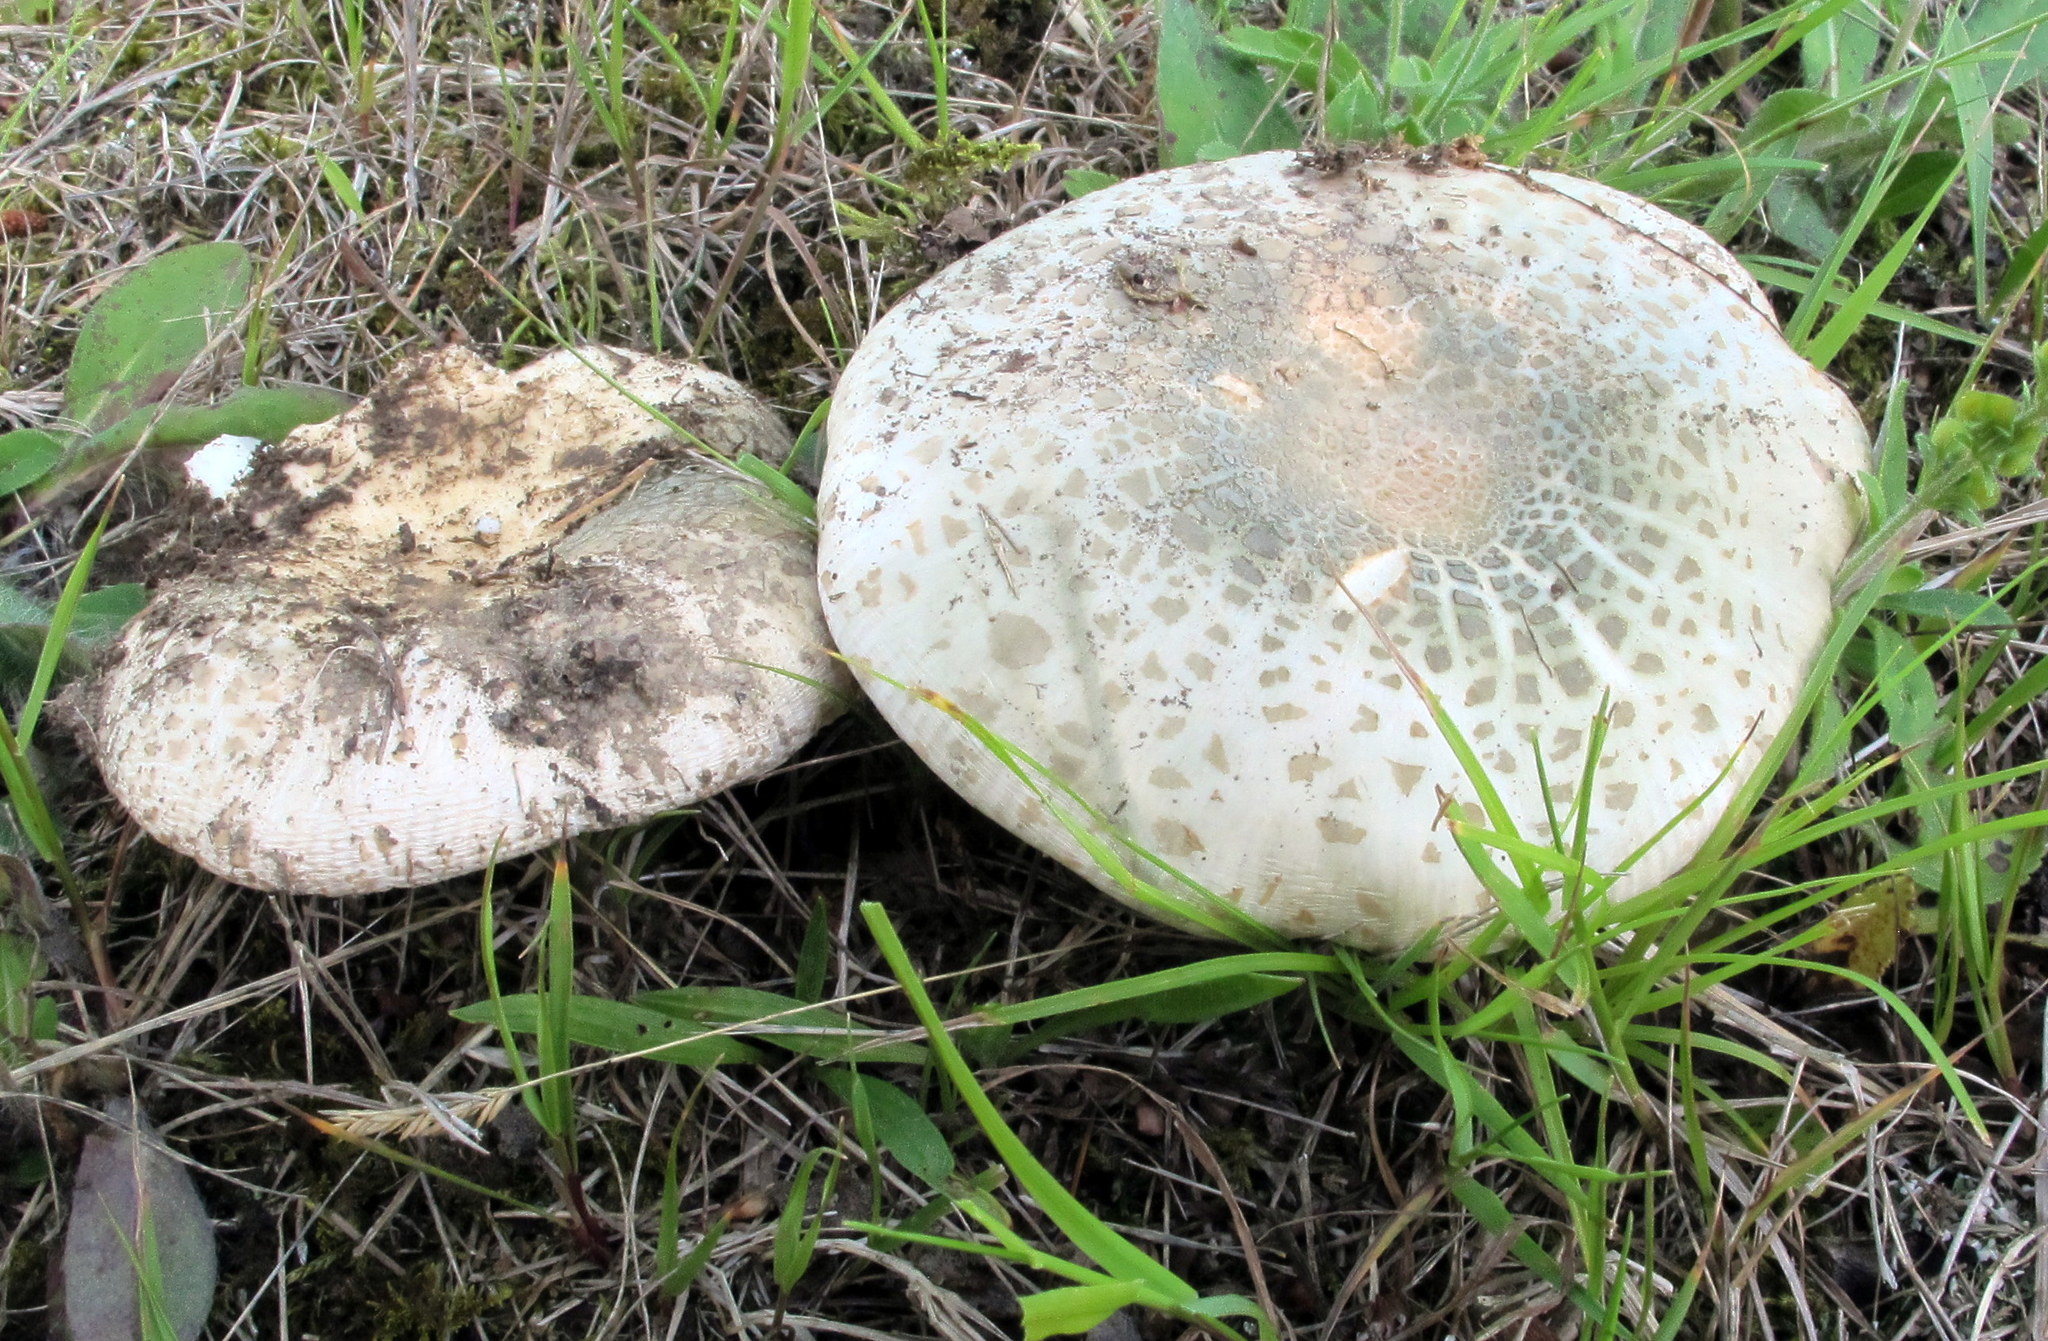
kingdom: Fungi
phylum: Basidiomycota
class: Agaricomycetes
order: Russulales
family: Russulaceae
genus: Russula
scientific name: Russula parvovirescens
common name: Blue-green cracking russula
